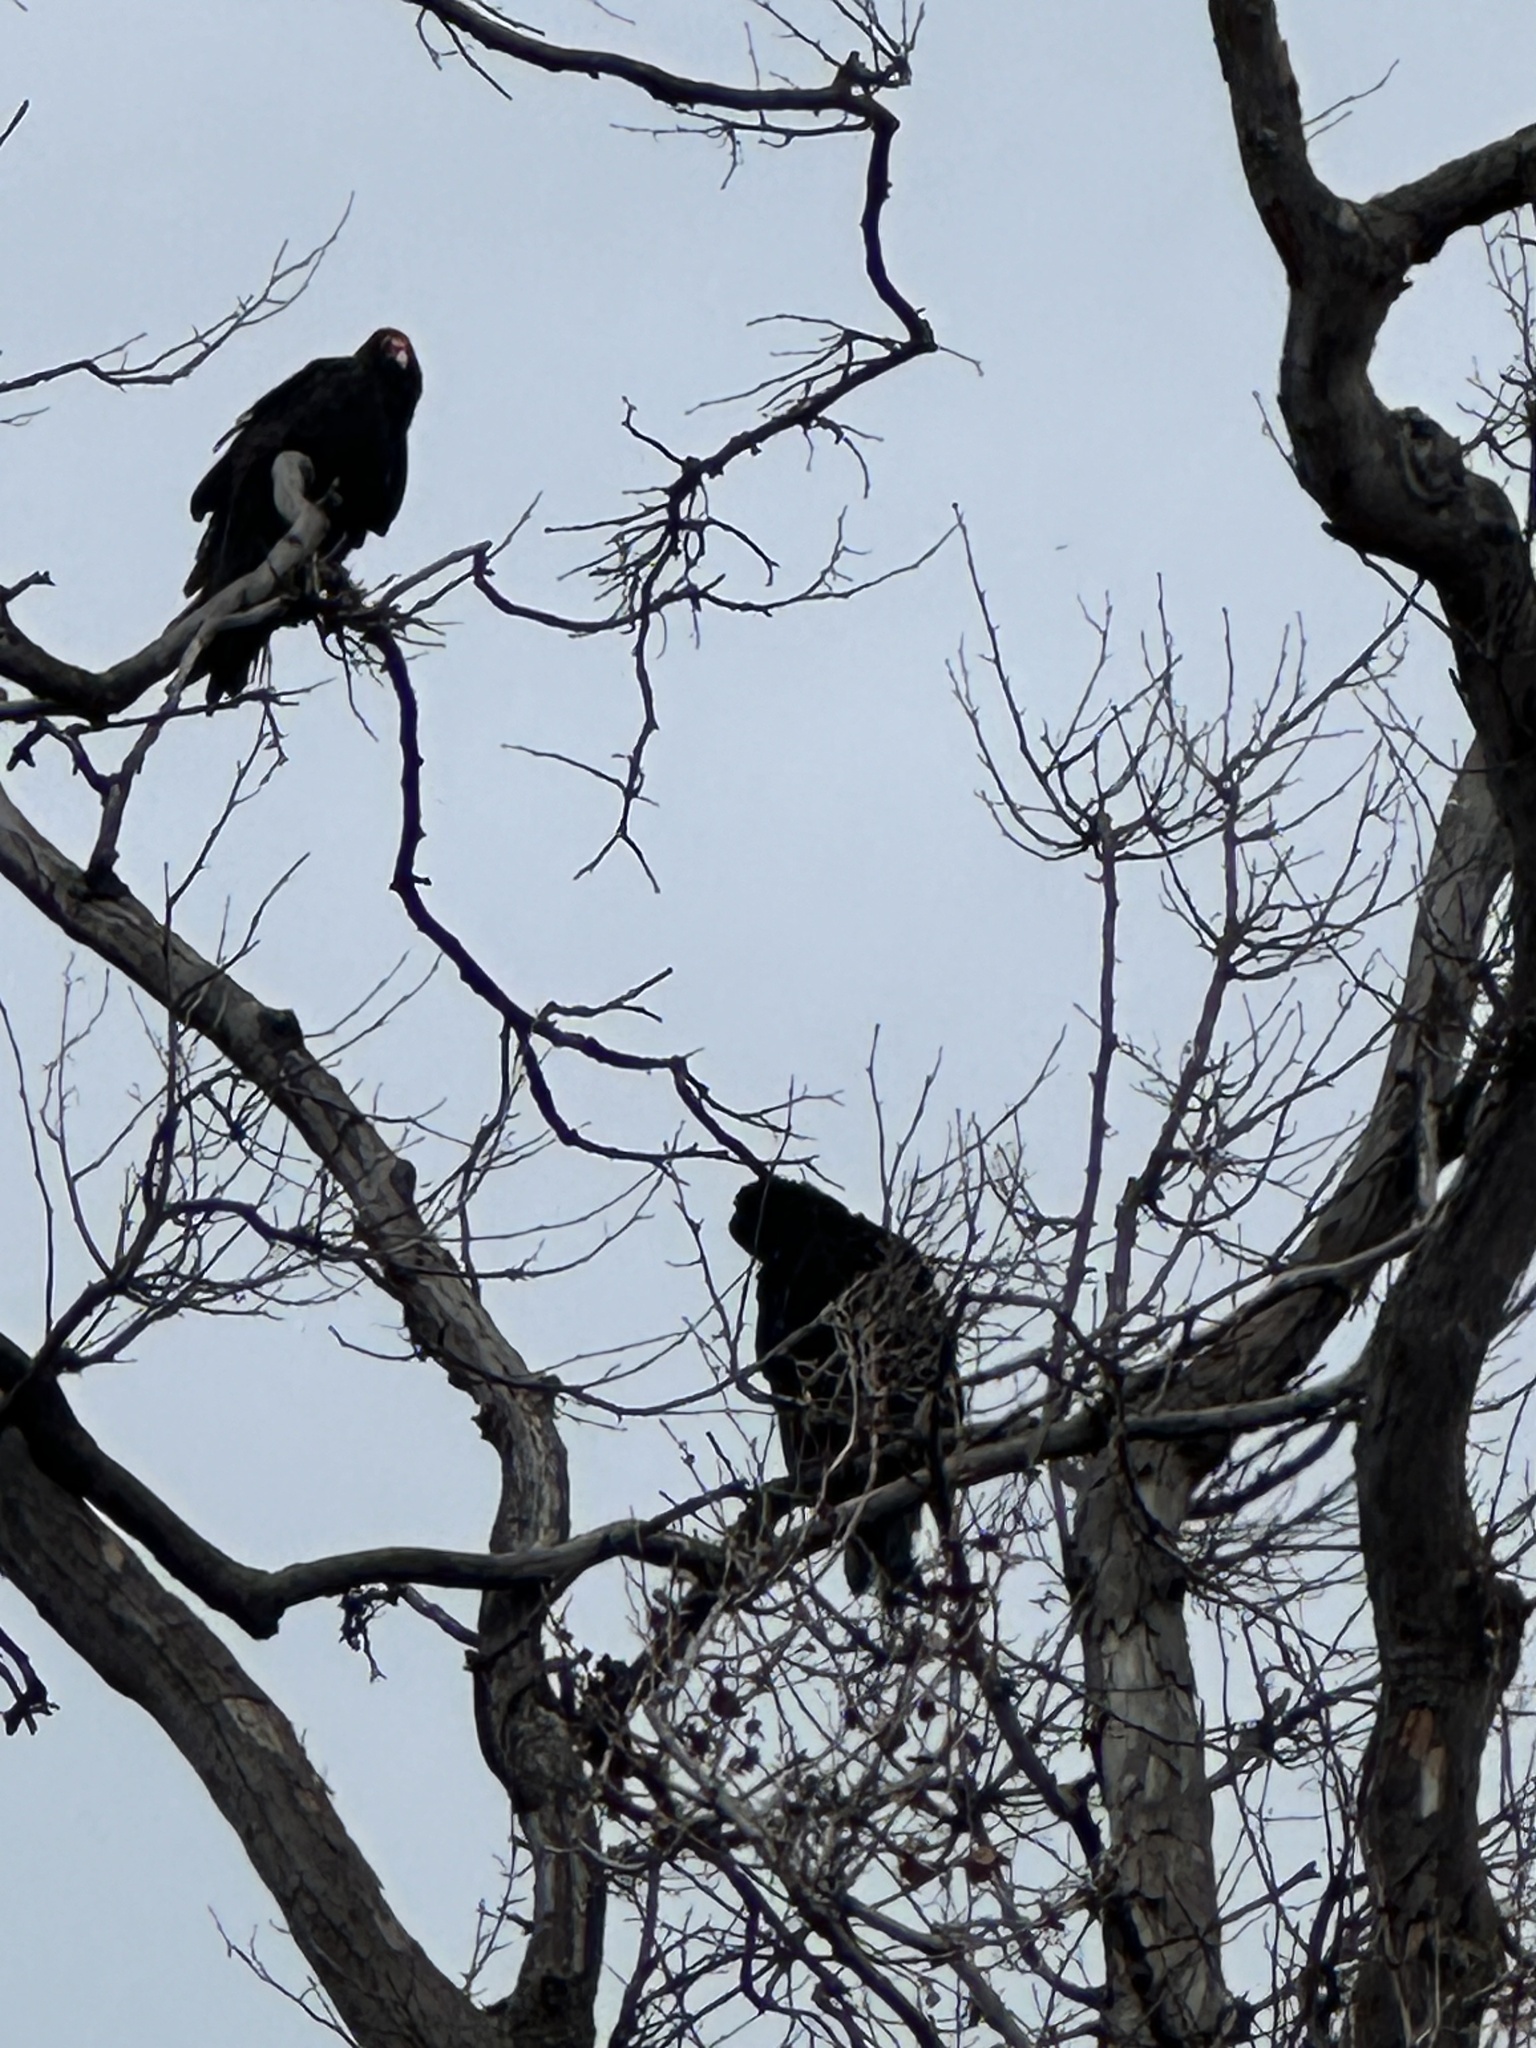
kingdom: Animalia
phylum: Chordata
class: Aves
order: Accipitriformes
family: Cathartidae
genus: Cathartes
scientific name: Cathartes aura
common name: Turkey vulture
